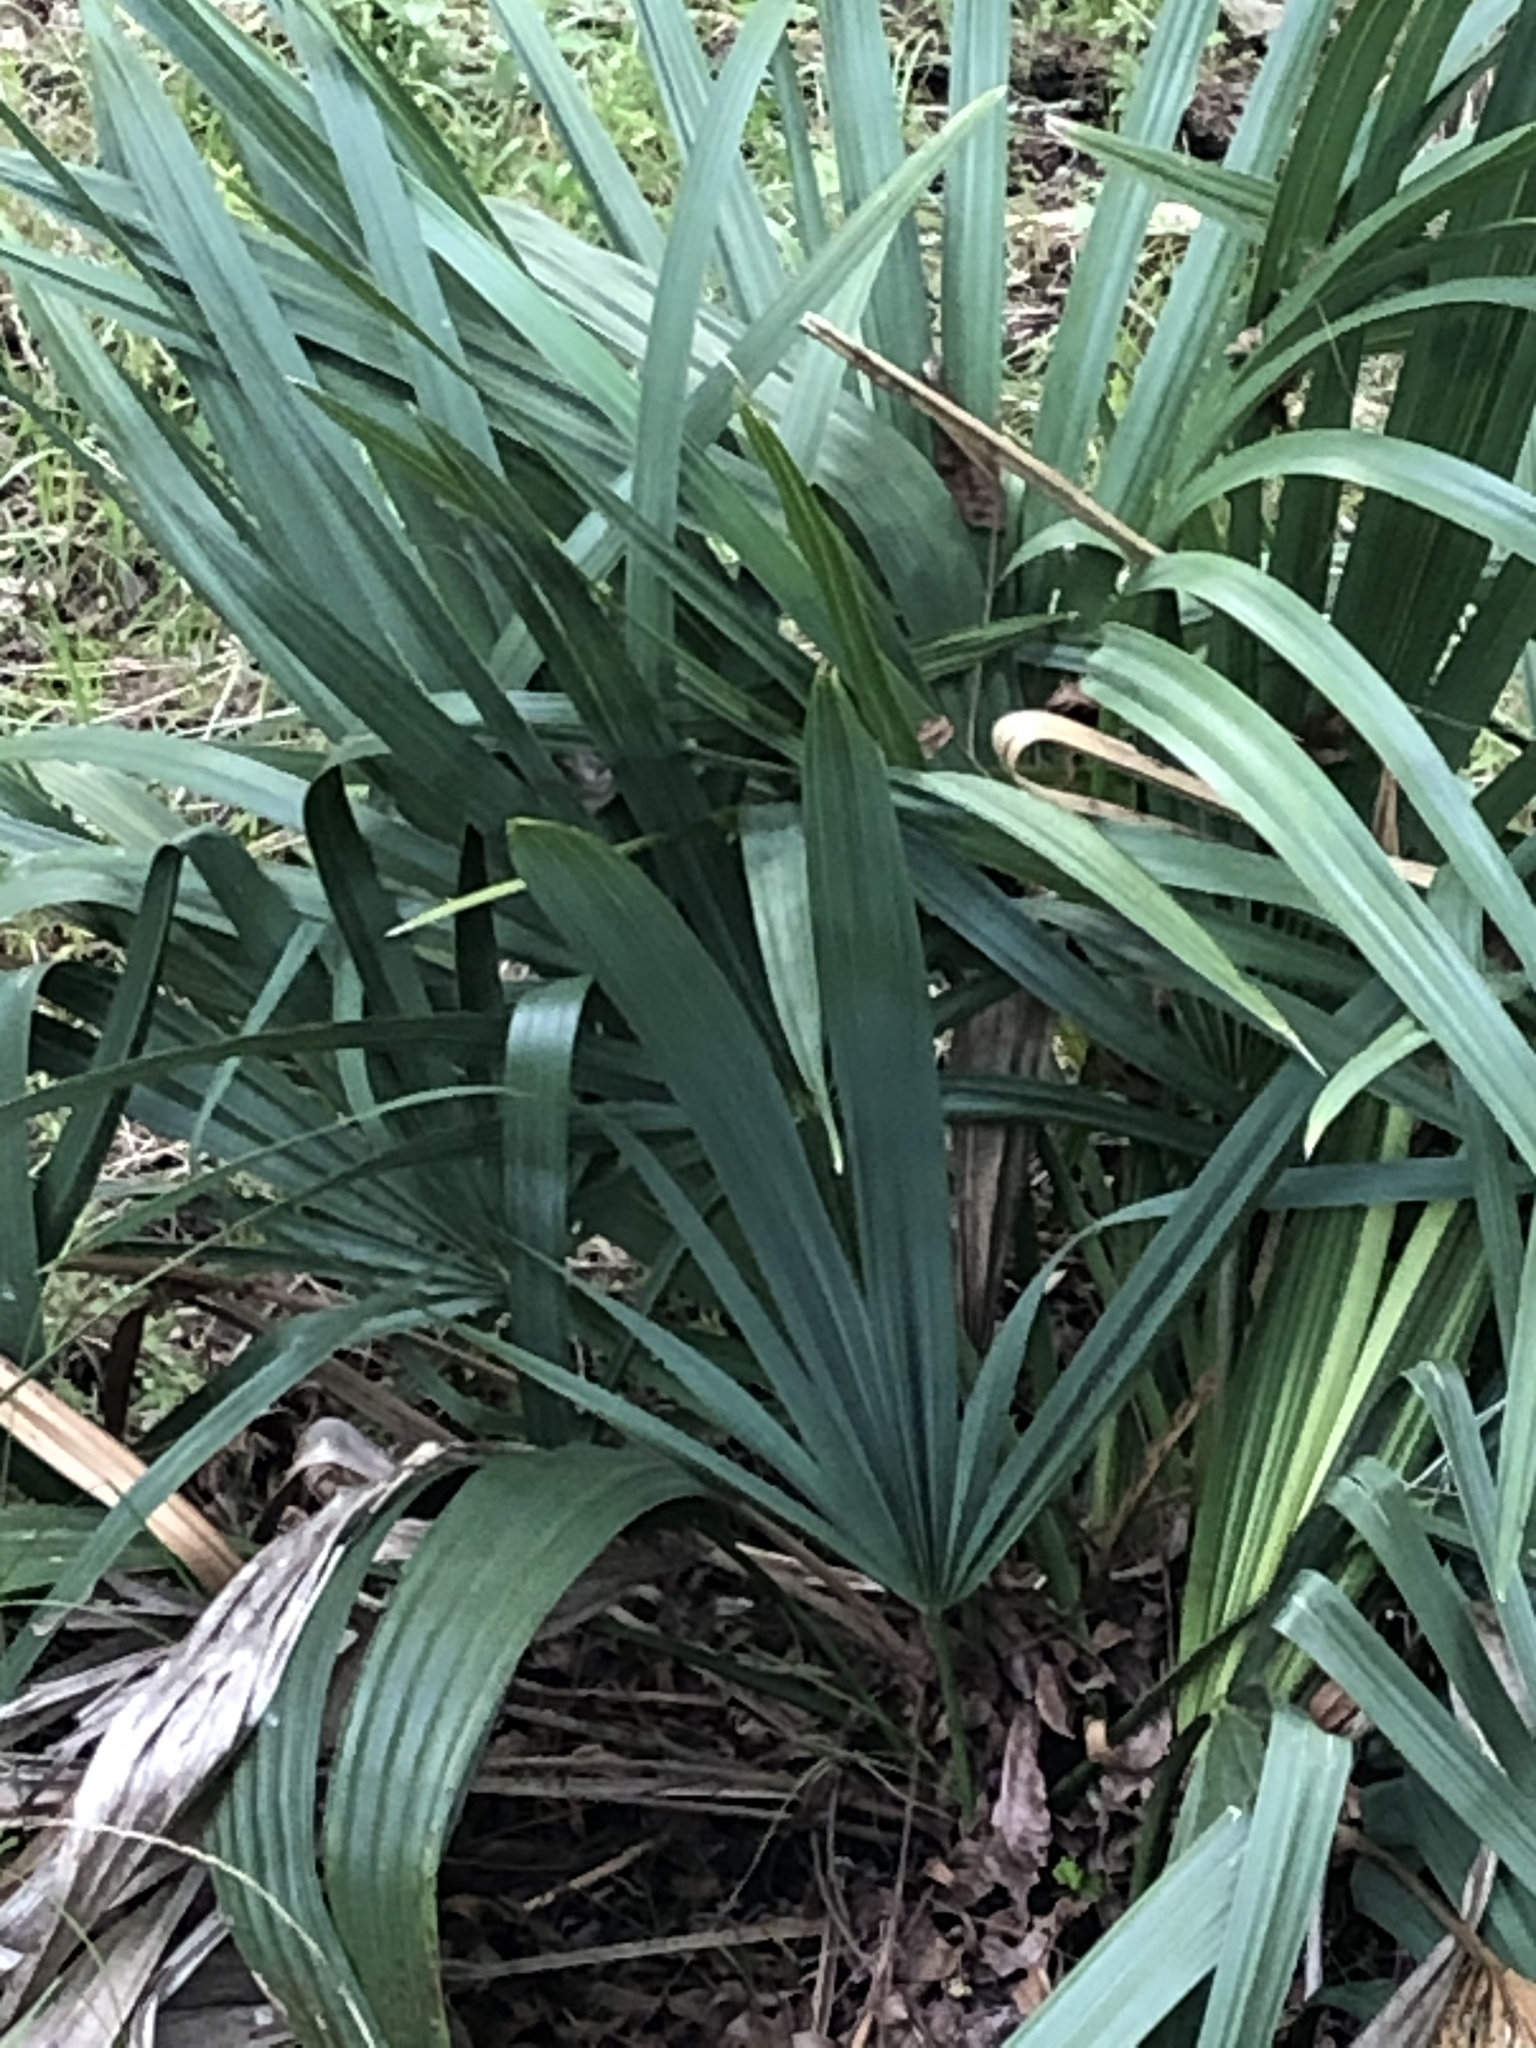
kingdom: Plantae
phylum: Tracheophyta
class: Liliopsida
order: Arecales
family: Arecaceae
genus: Sabal
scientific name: Sabal minor
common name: Dwarf palmetto
